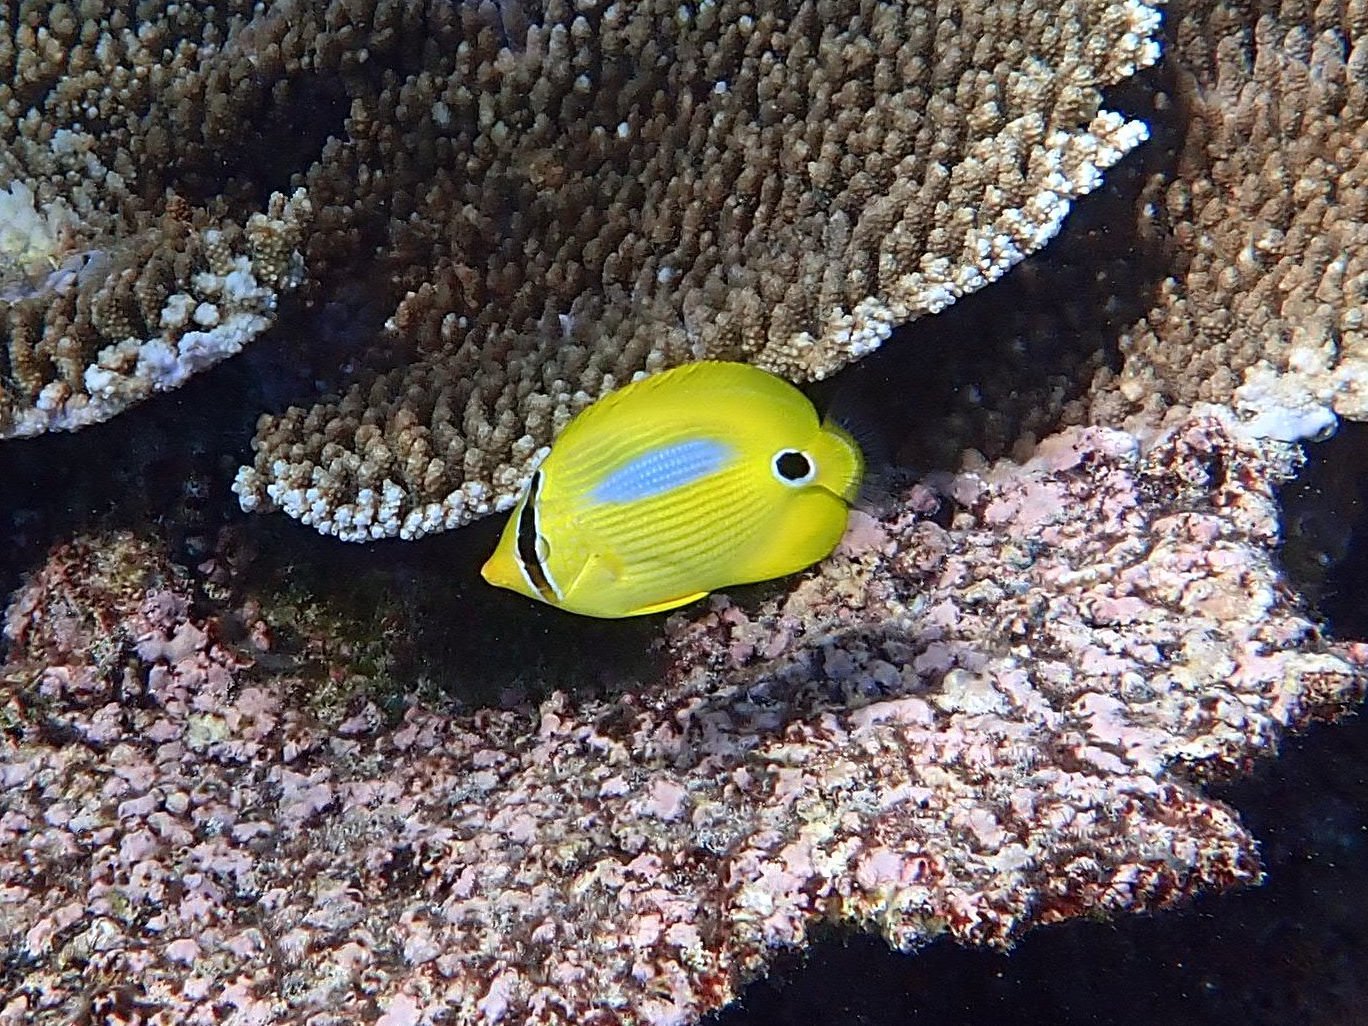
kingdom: Animalia
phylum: Chordata
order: Perciformes
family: Chaetodontidae
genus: Chaetodon
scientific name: Chaetodon plebeius
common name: Bluespot butterflyfish
